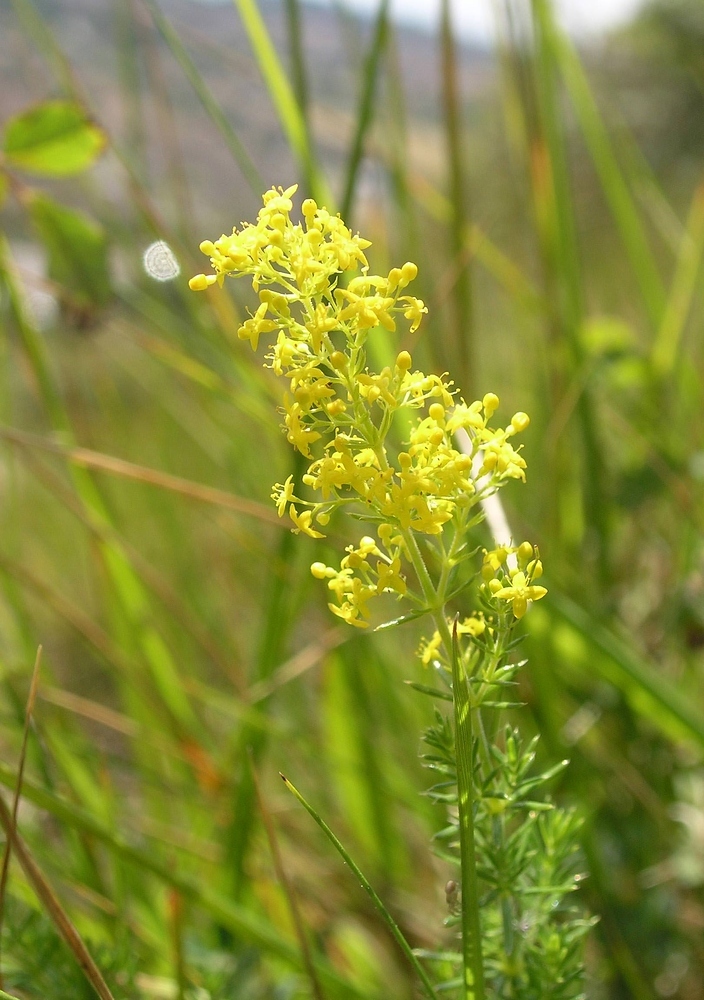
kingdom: Plantae
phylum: Tracheophyta
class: Magnoliopsida
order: Gentianales
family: Rubiaceae
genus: Galium
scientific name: Galium verum
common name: Lady's bedstraw
